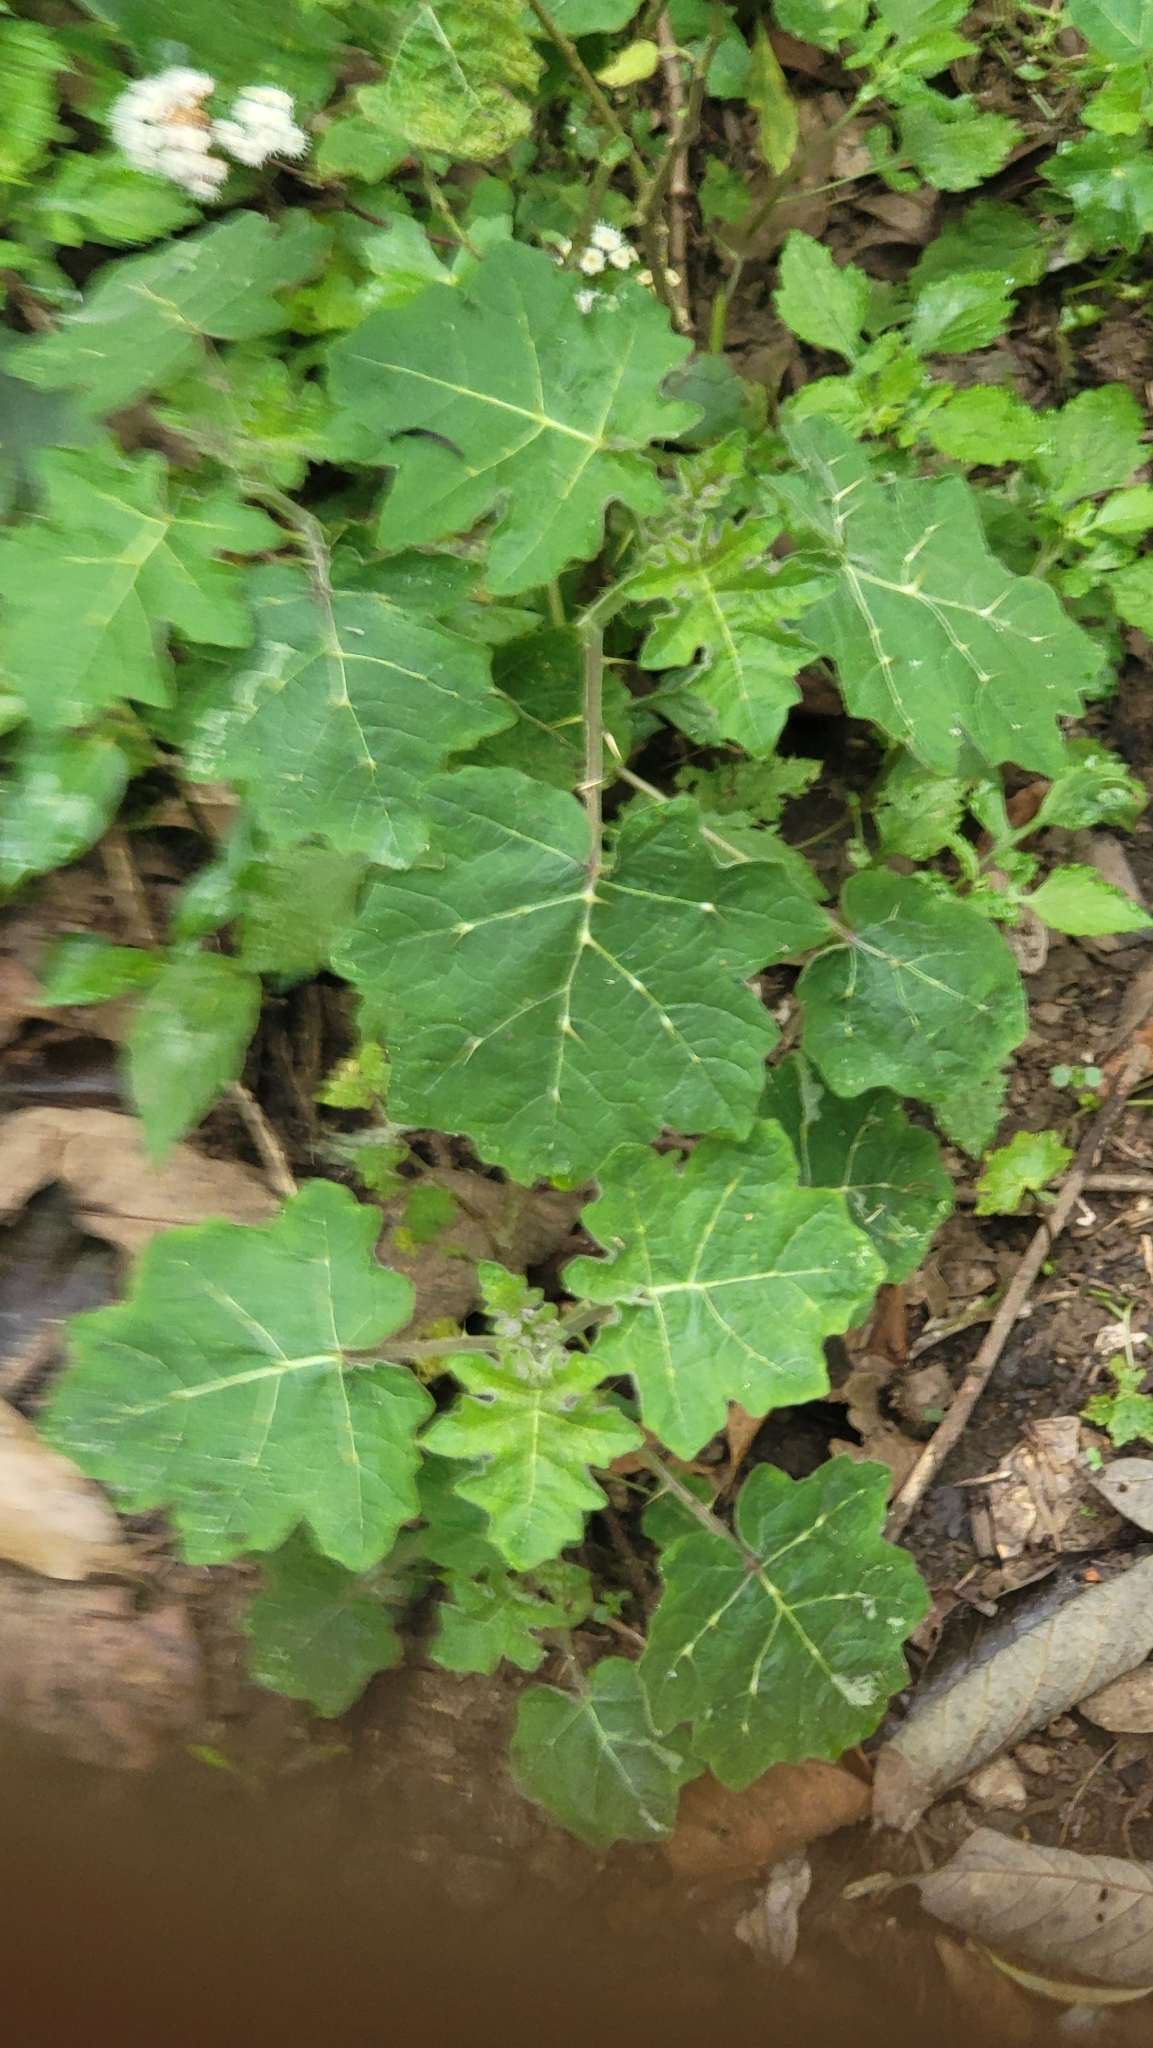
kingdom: Plantae
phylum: Tracheophyta
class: Magnoliopsida
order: Solanales
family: Solanaceae
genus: Solanum
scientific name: Solanum viarum
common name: Tropical soda apple
